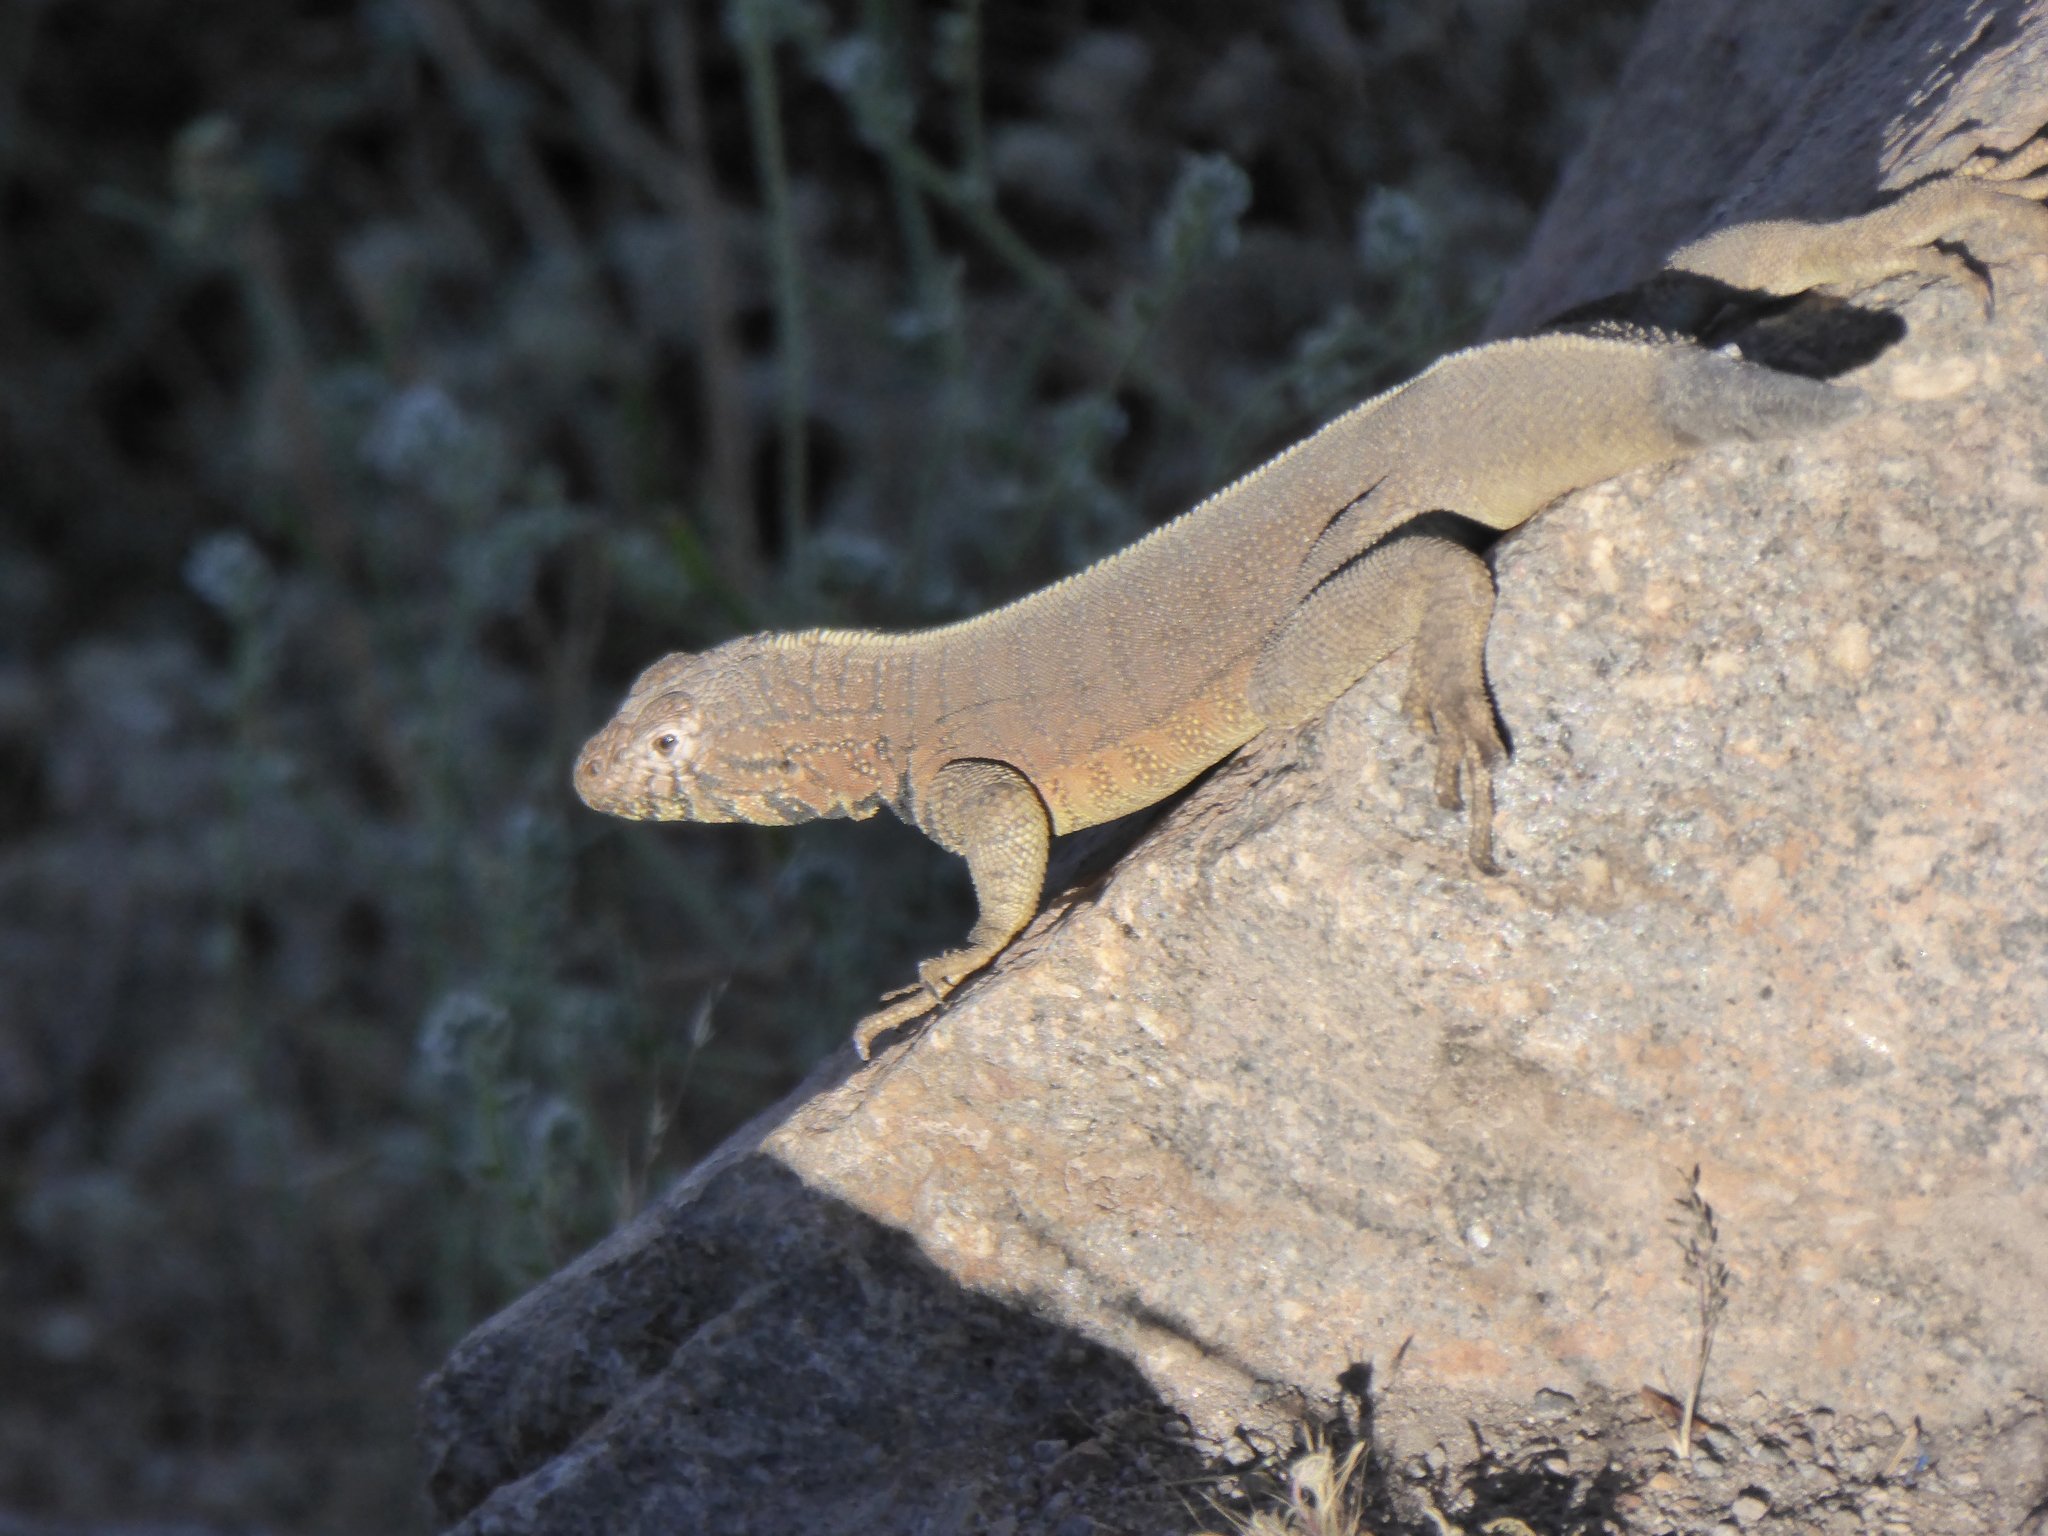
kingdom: Animalia
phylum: Chordata
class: Squamata
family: Tropiduridae
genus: Microlophus
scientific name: Microlophus peruvianus
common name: Peru pacific iguana
